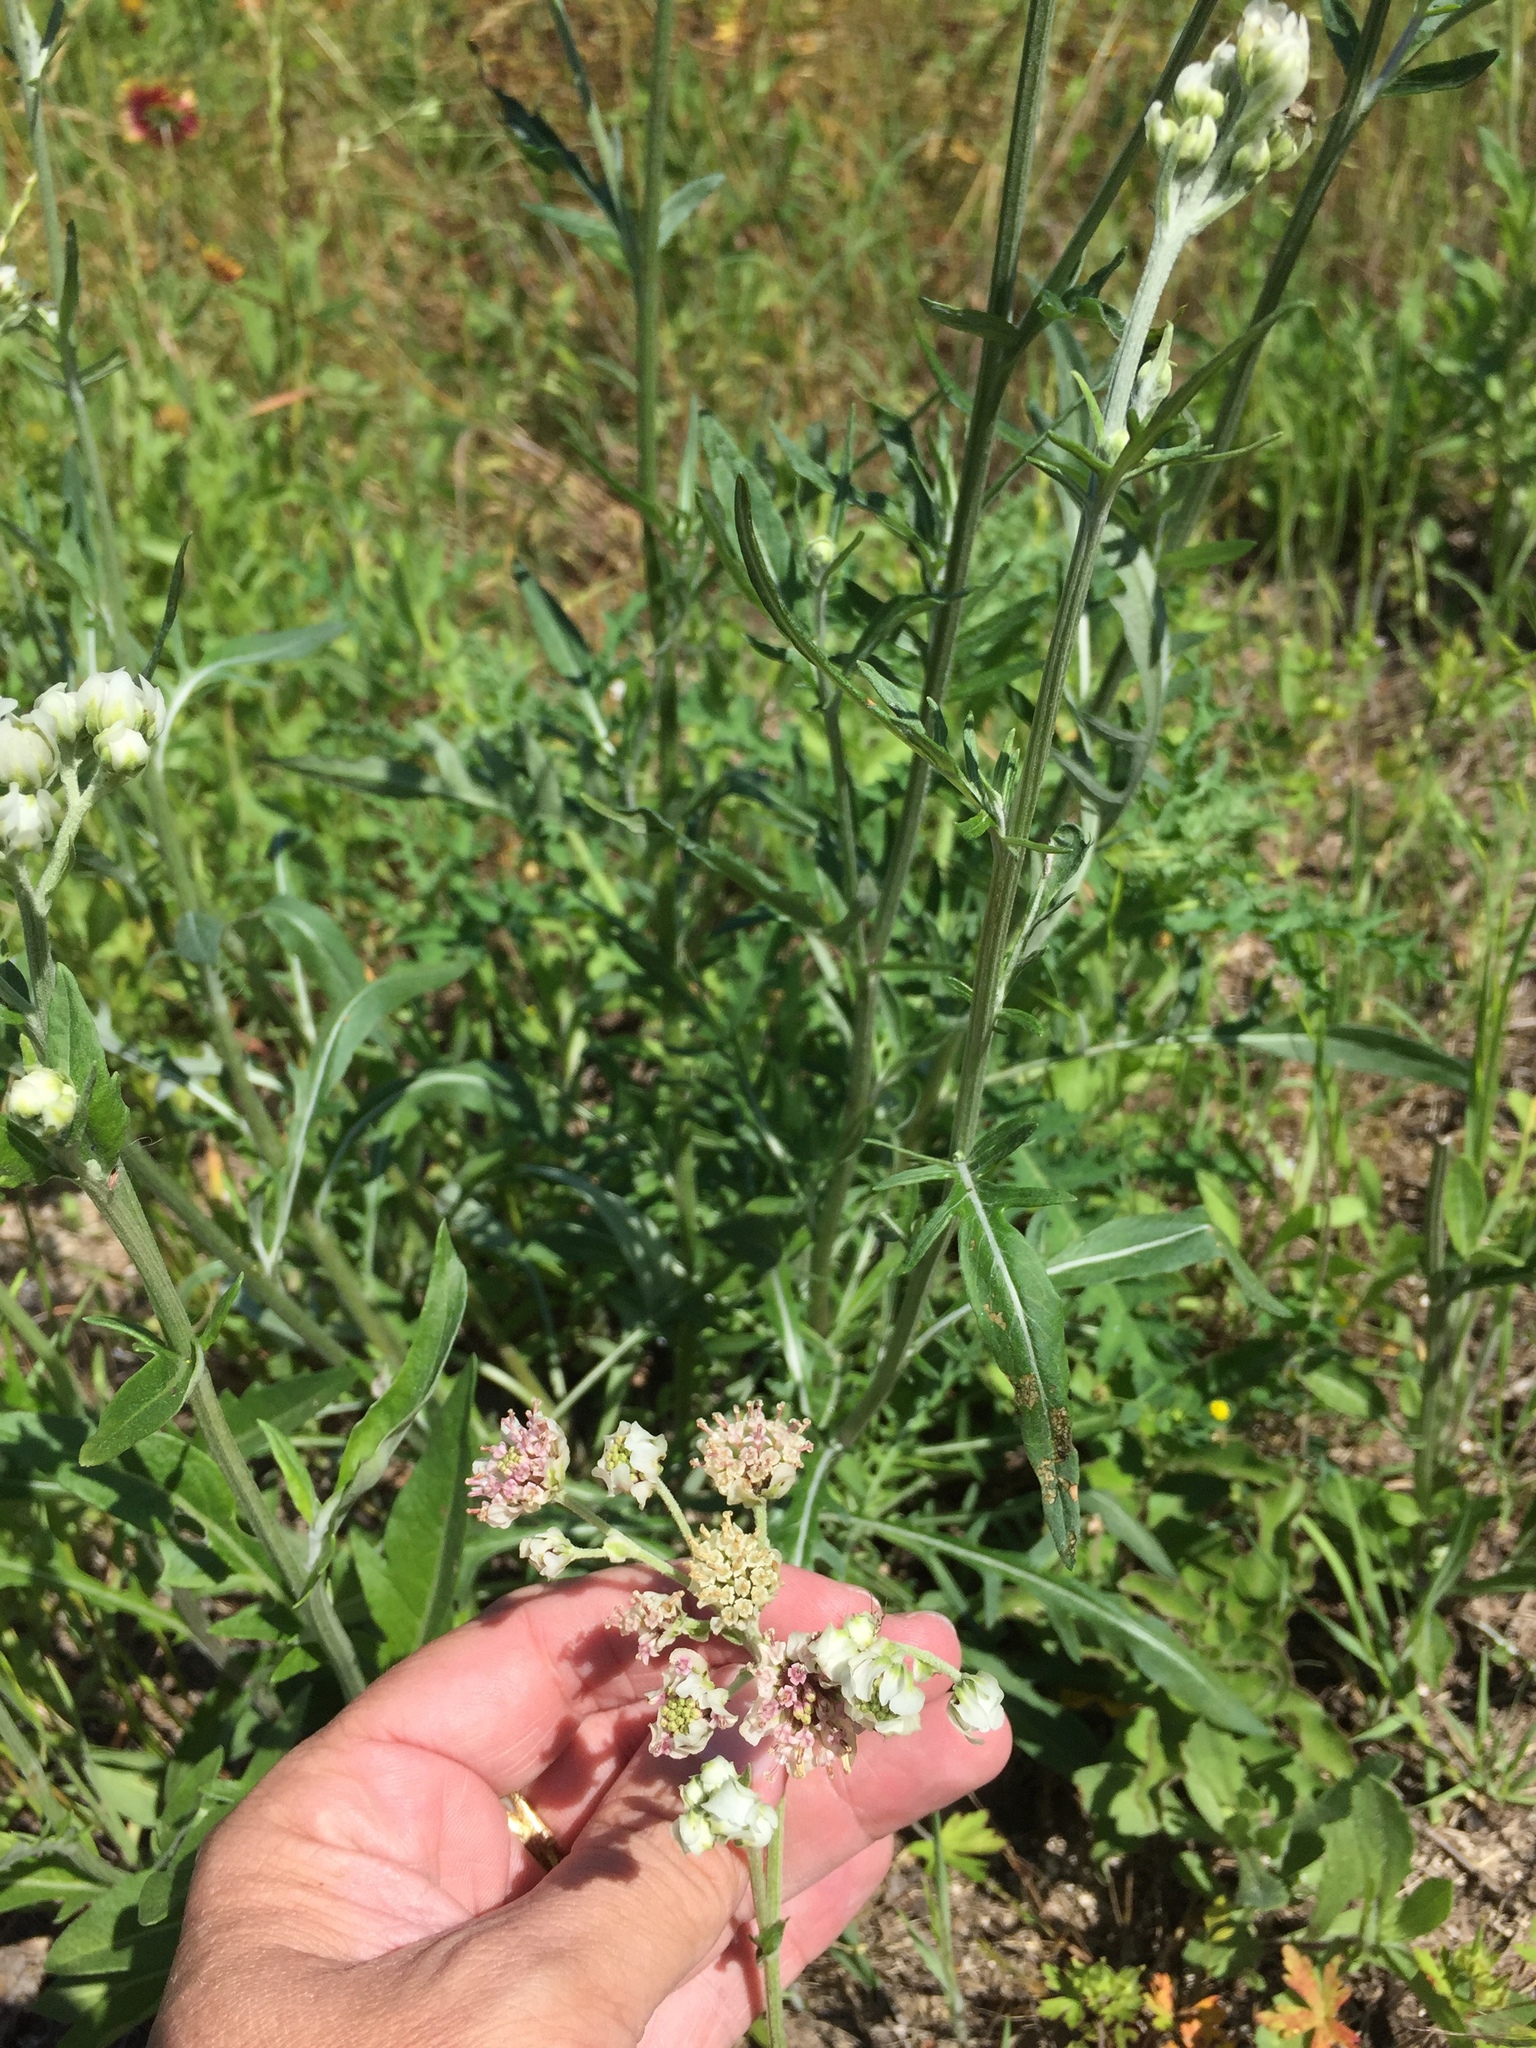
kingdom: Plantae
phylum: Tracheophyta
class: Magnoliopsida
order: Asterales
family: Asteraceae
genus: Hymenopappus
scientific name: Hymenopappus artemisiifolius
